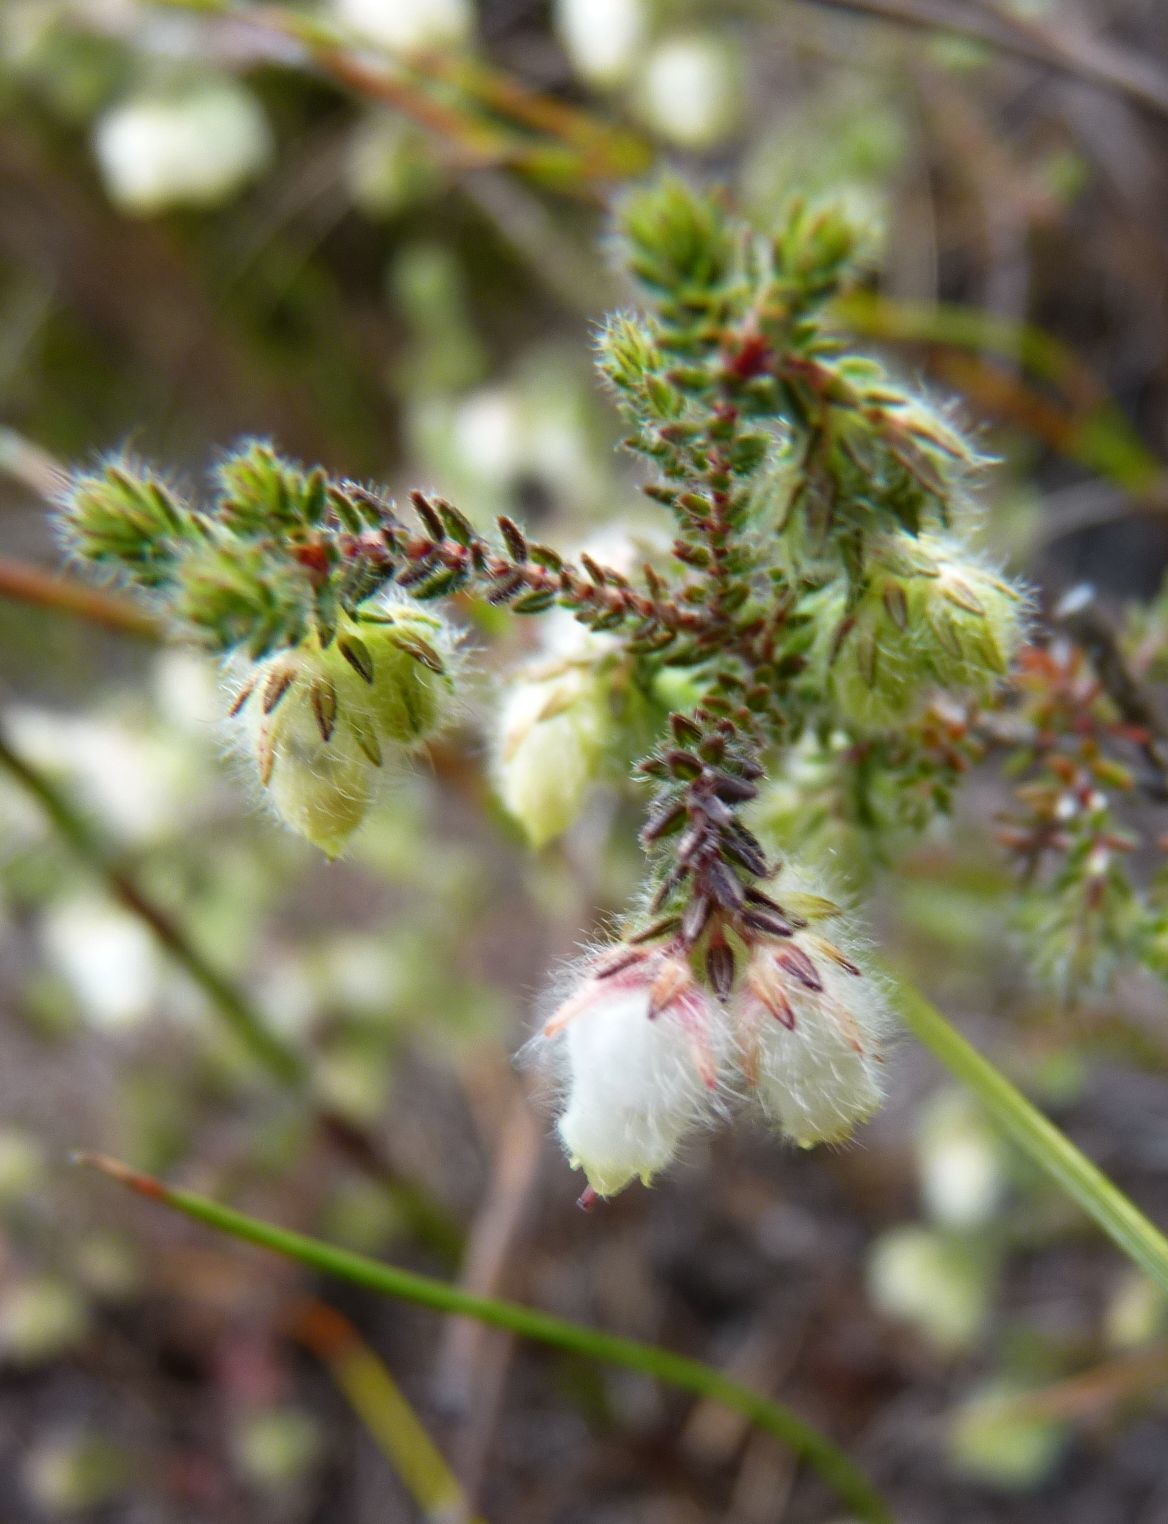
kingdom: Plantae
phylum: Tracheophyta
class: Magnoliopsida
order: Ericales
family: Ericaceae
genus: Erica
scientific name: Erica dysantha
